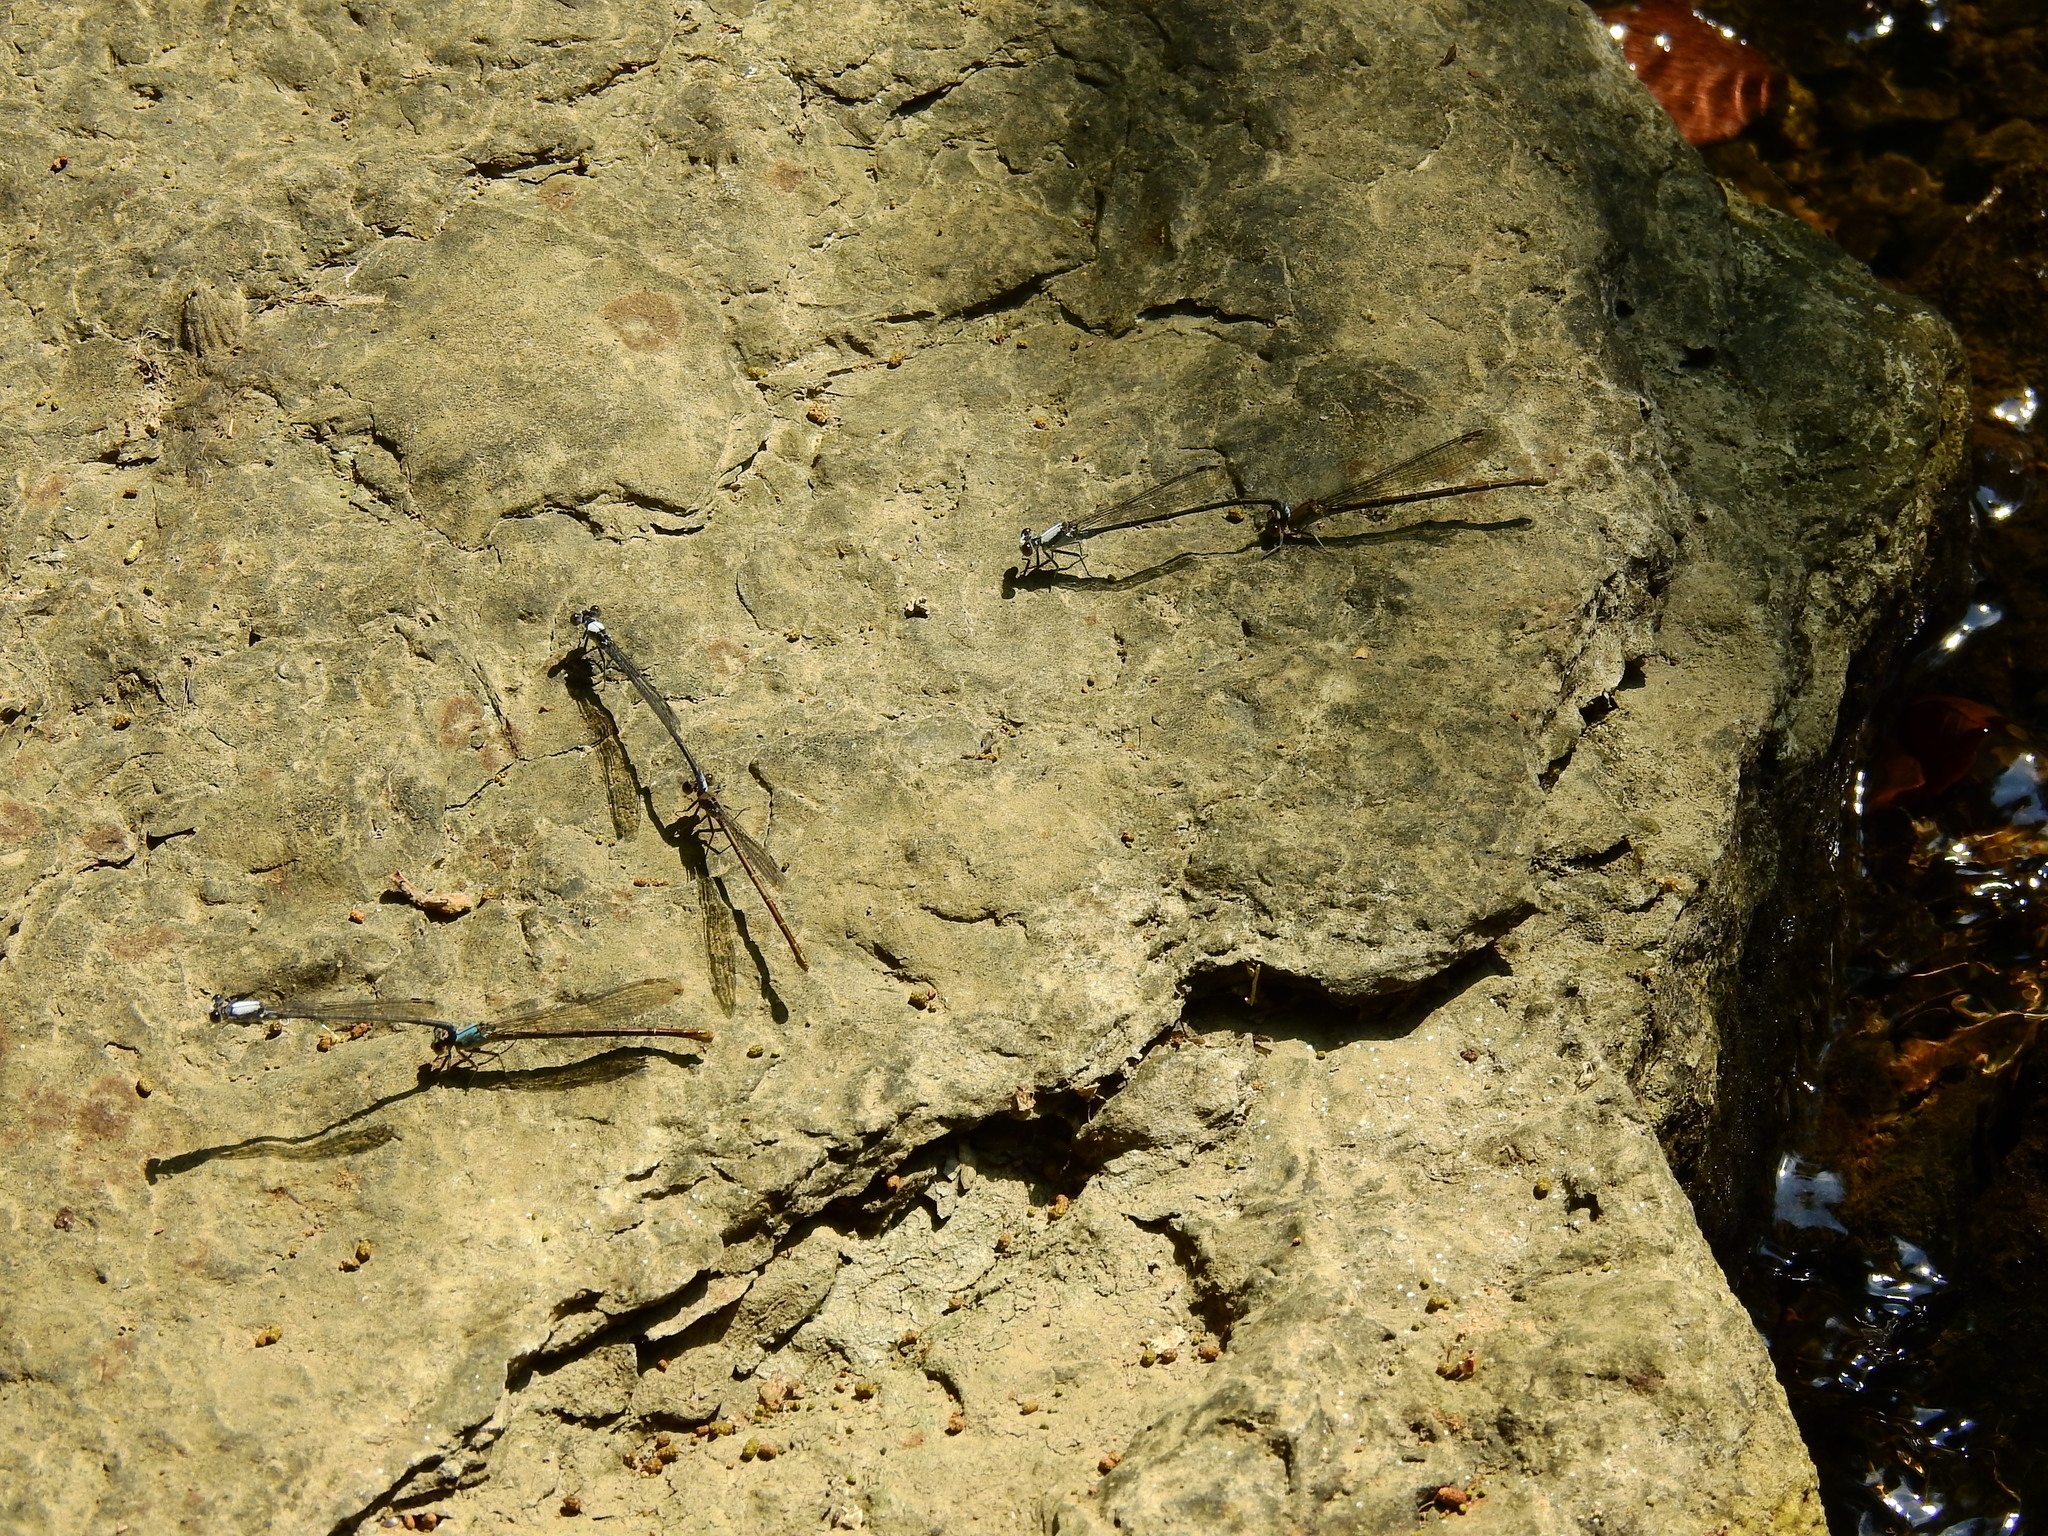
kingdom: Animalia
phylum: Arthropoda
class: Insecta
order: Odonata
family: Coenagrionidae
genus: Argia
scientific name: Argia moesta
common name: Powdered dancer
